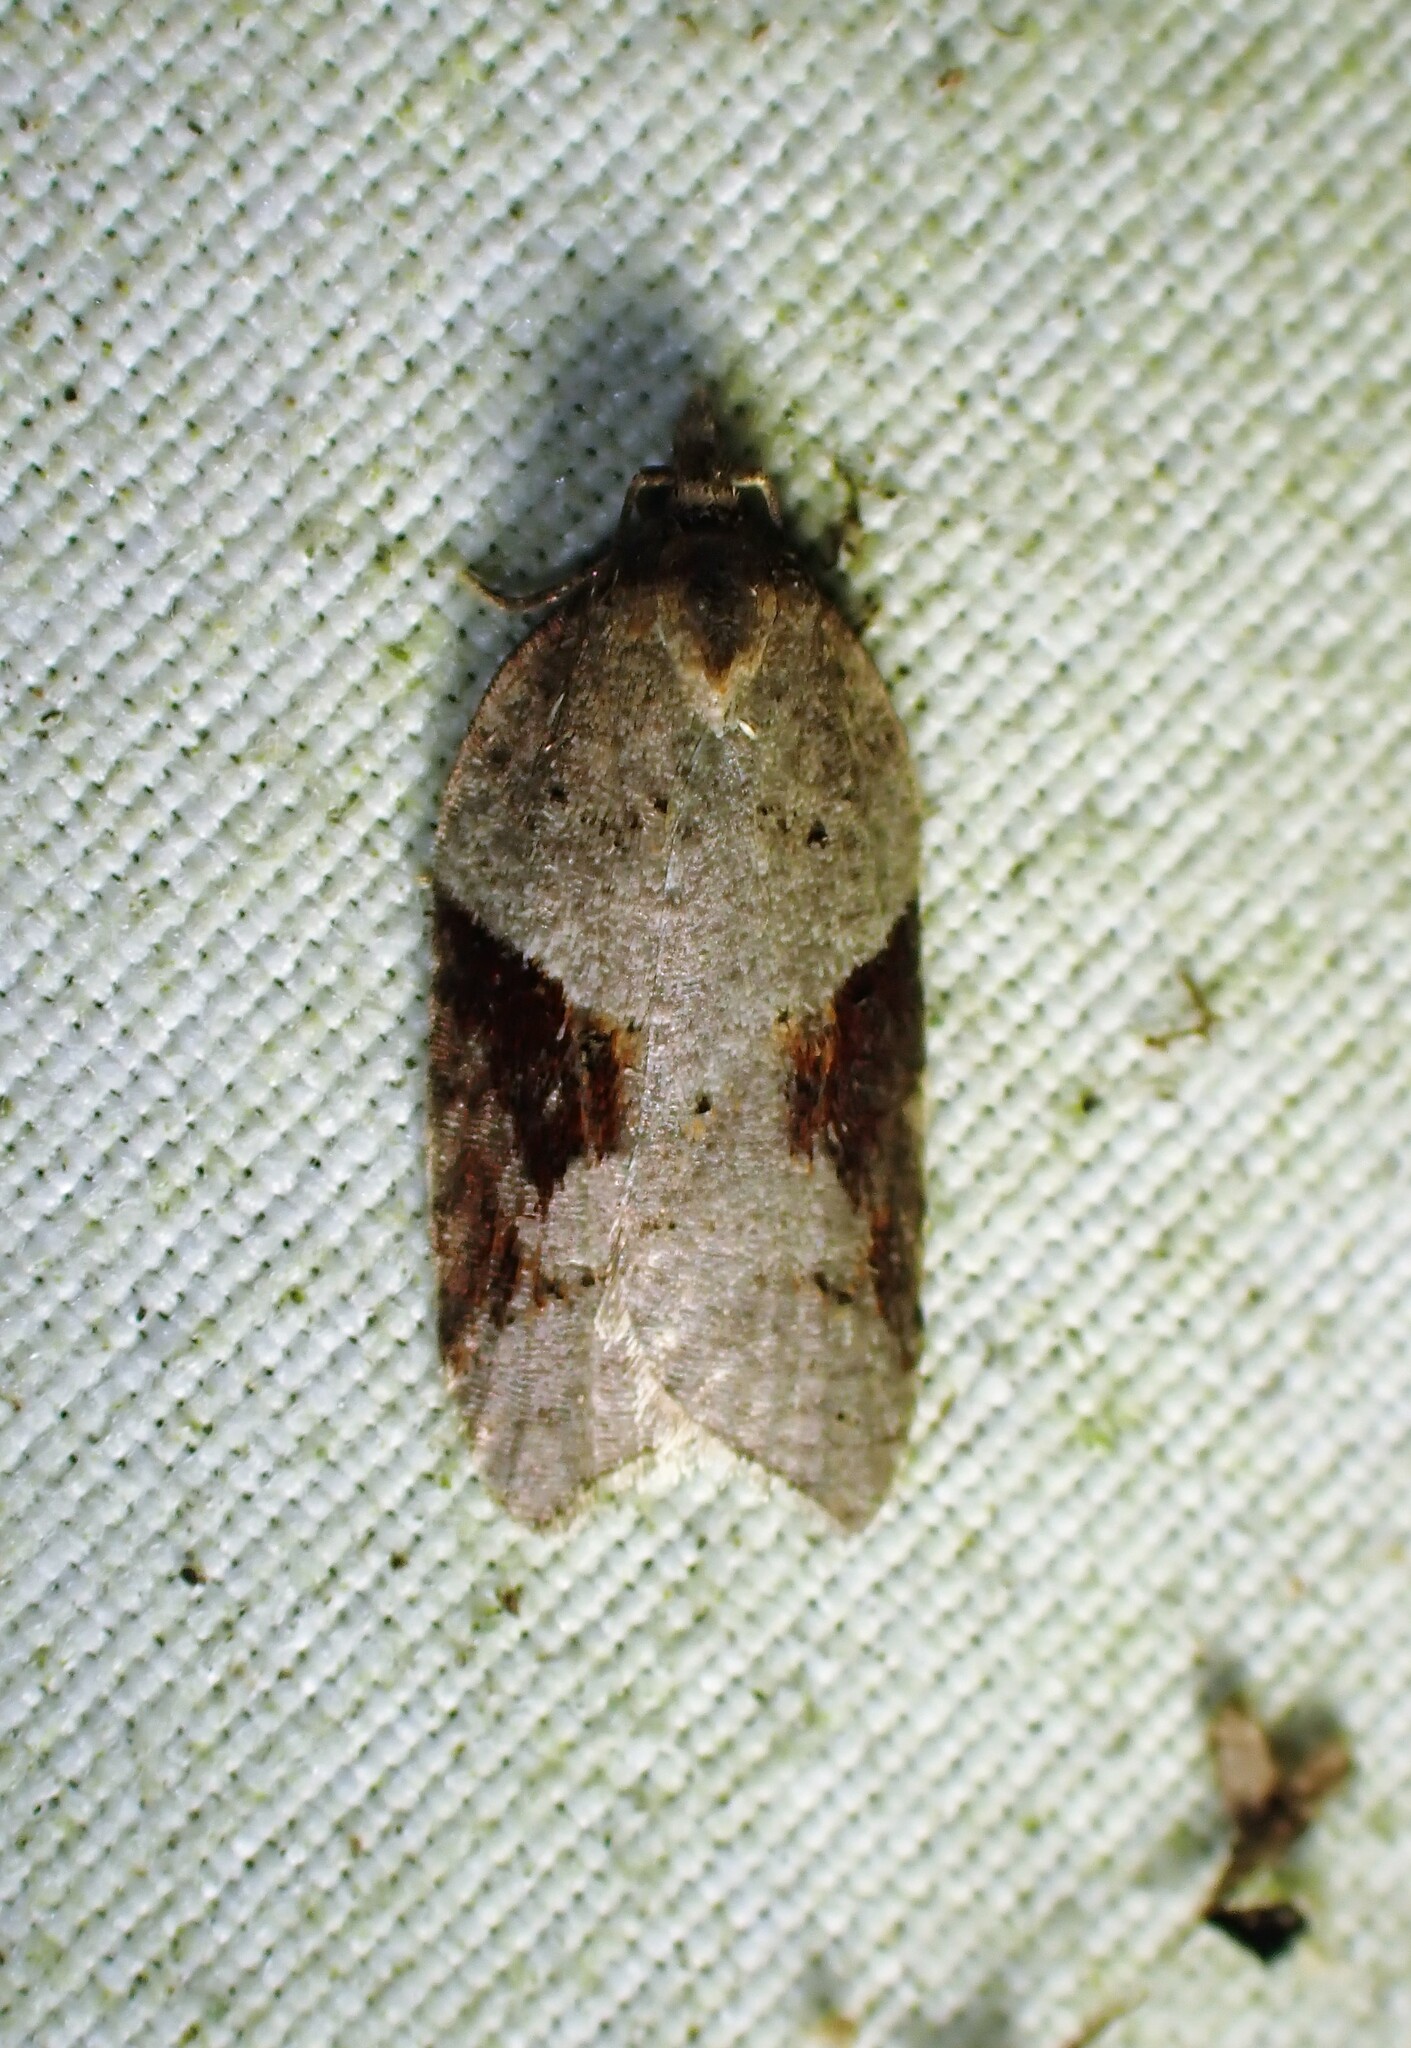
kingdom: Animalia
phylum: Arthropoda
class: Insecta
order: Lepidoptera
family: Tortricidae
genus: Acleris
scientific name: Acleris macdunnoughi
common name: Macdunnough's acleris
